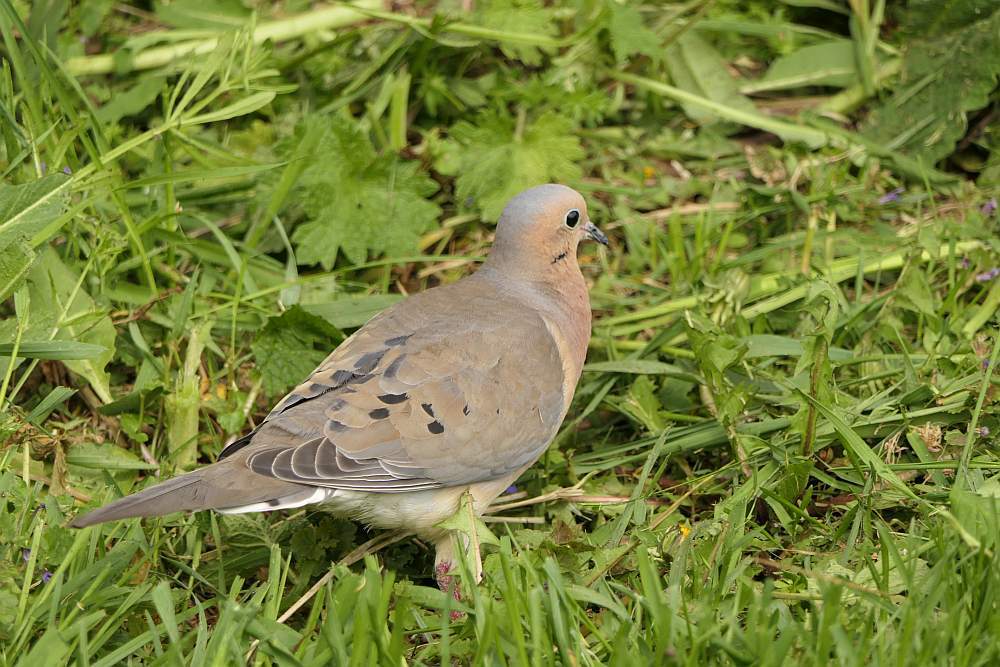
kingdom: Animalia
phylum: Chordata
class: Aves
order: Columbiformes
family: Columbidae
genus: Zenaida
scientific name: Zenaida macroura
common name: Mourning dove
